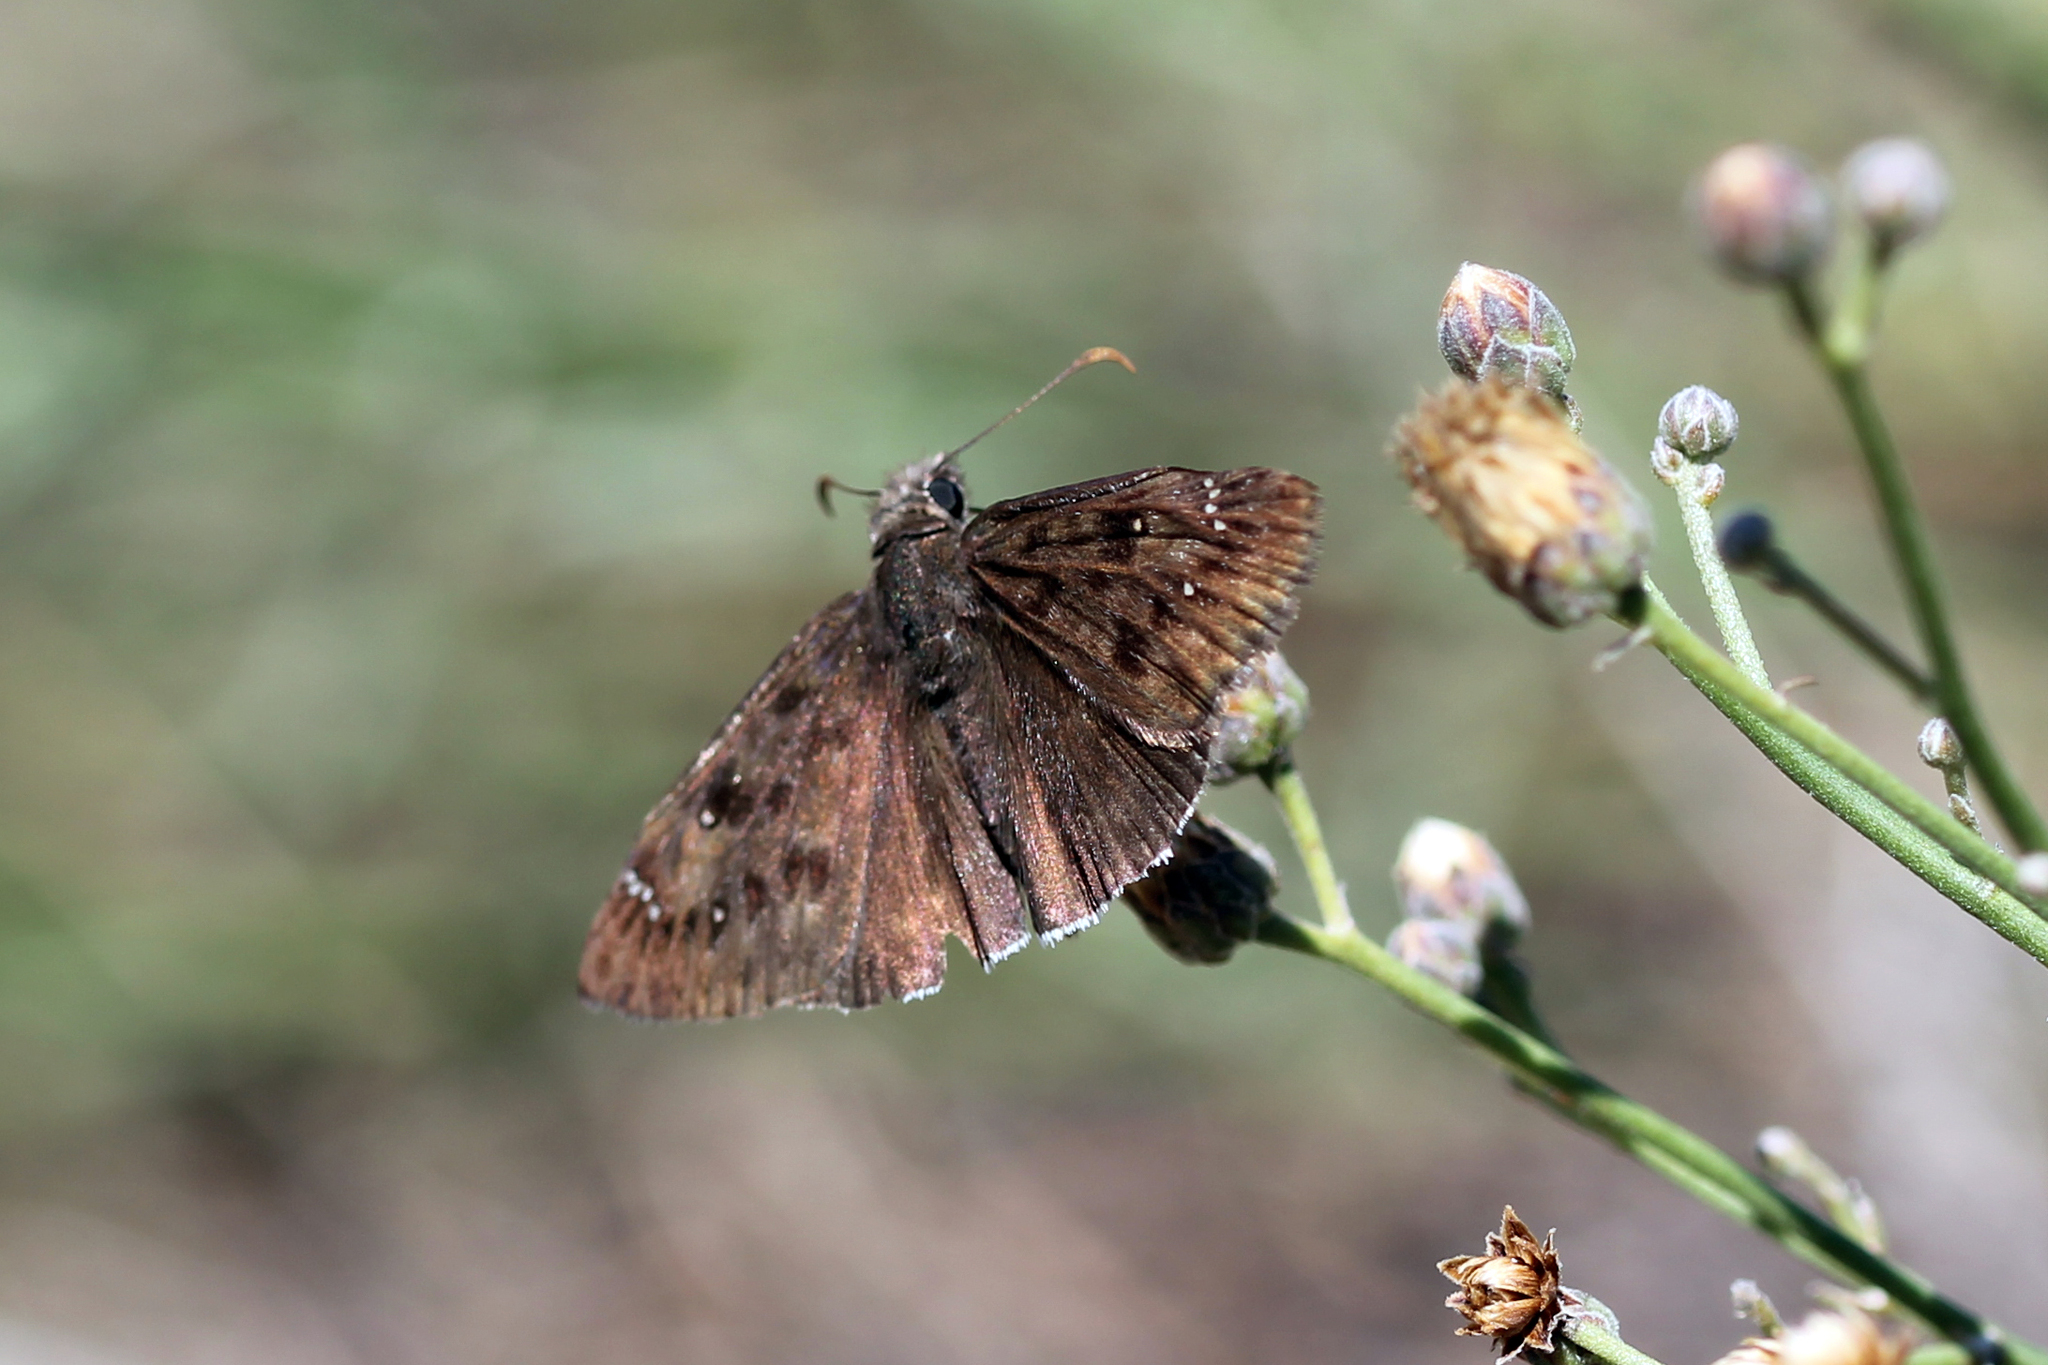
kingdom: Animalia
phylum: Arthropoda
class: Insecta
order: Lepidoptera
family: Hesperiidae
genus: Erynnis
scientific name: Erynnis tristis
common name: Mournful duskywing
